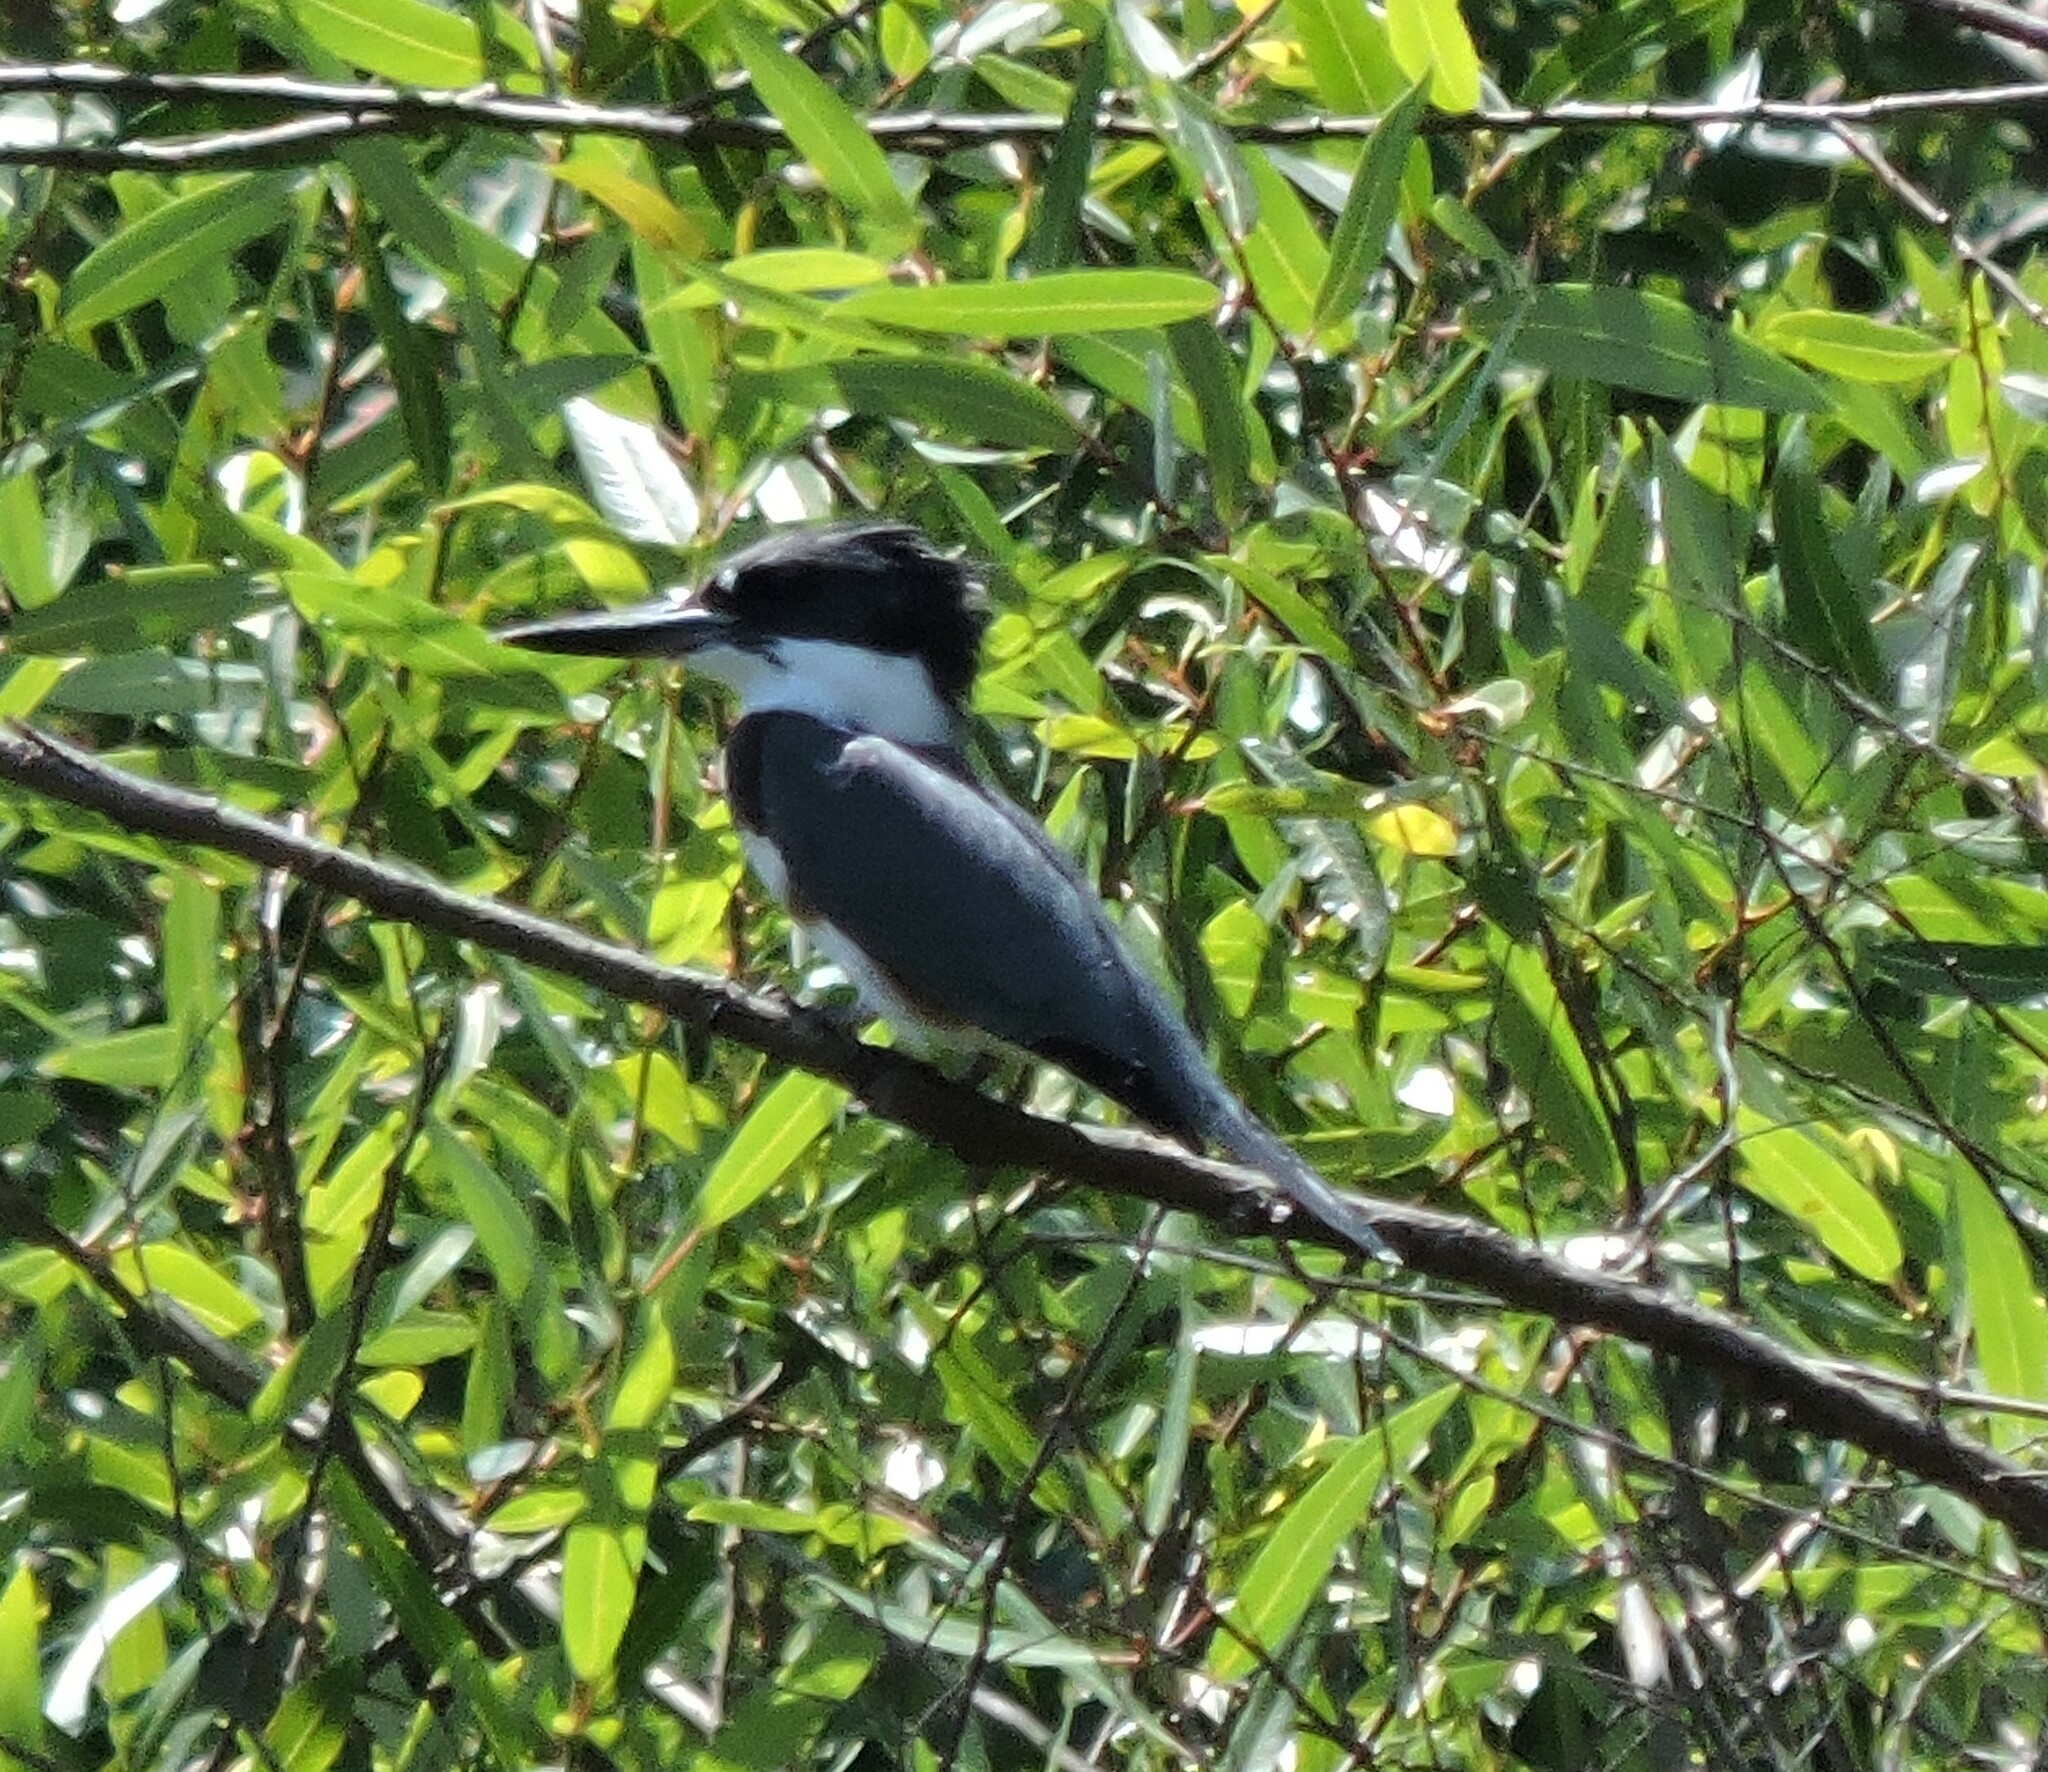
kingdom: Animalia
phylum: Chordata
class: Aves
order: Coraciiformes
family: Alcedinidae
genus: Megaceryle
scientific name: Megaceryle alcyon
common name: Belted kingfisher
